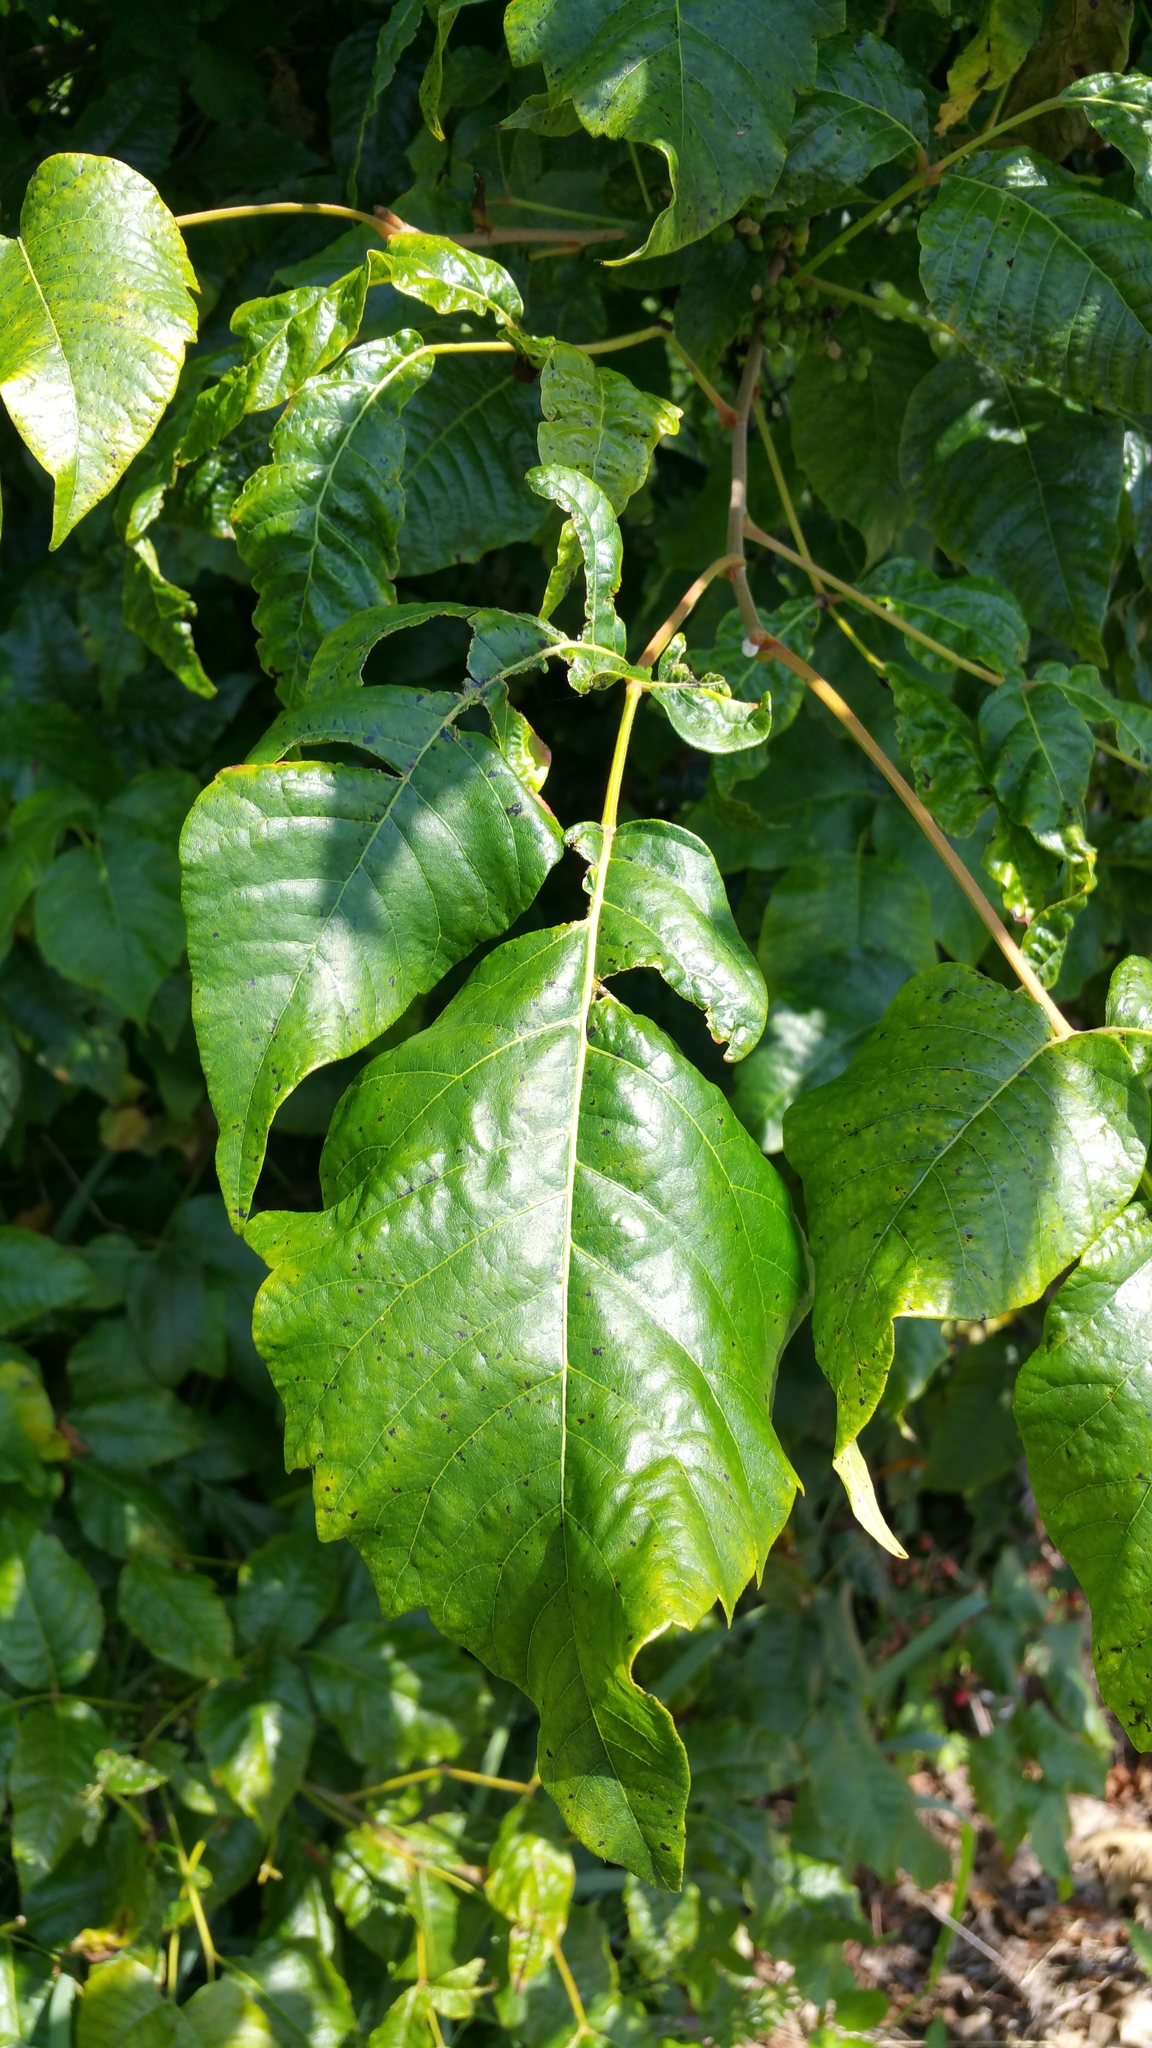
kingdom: Plantae
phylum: Tracheophyta
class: Magnoliopsida
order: Sapindales
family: Anacardiaceae
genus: Toxicodendron
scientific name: Toxicodendron radicans
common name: Poison ivy
